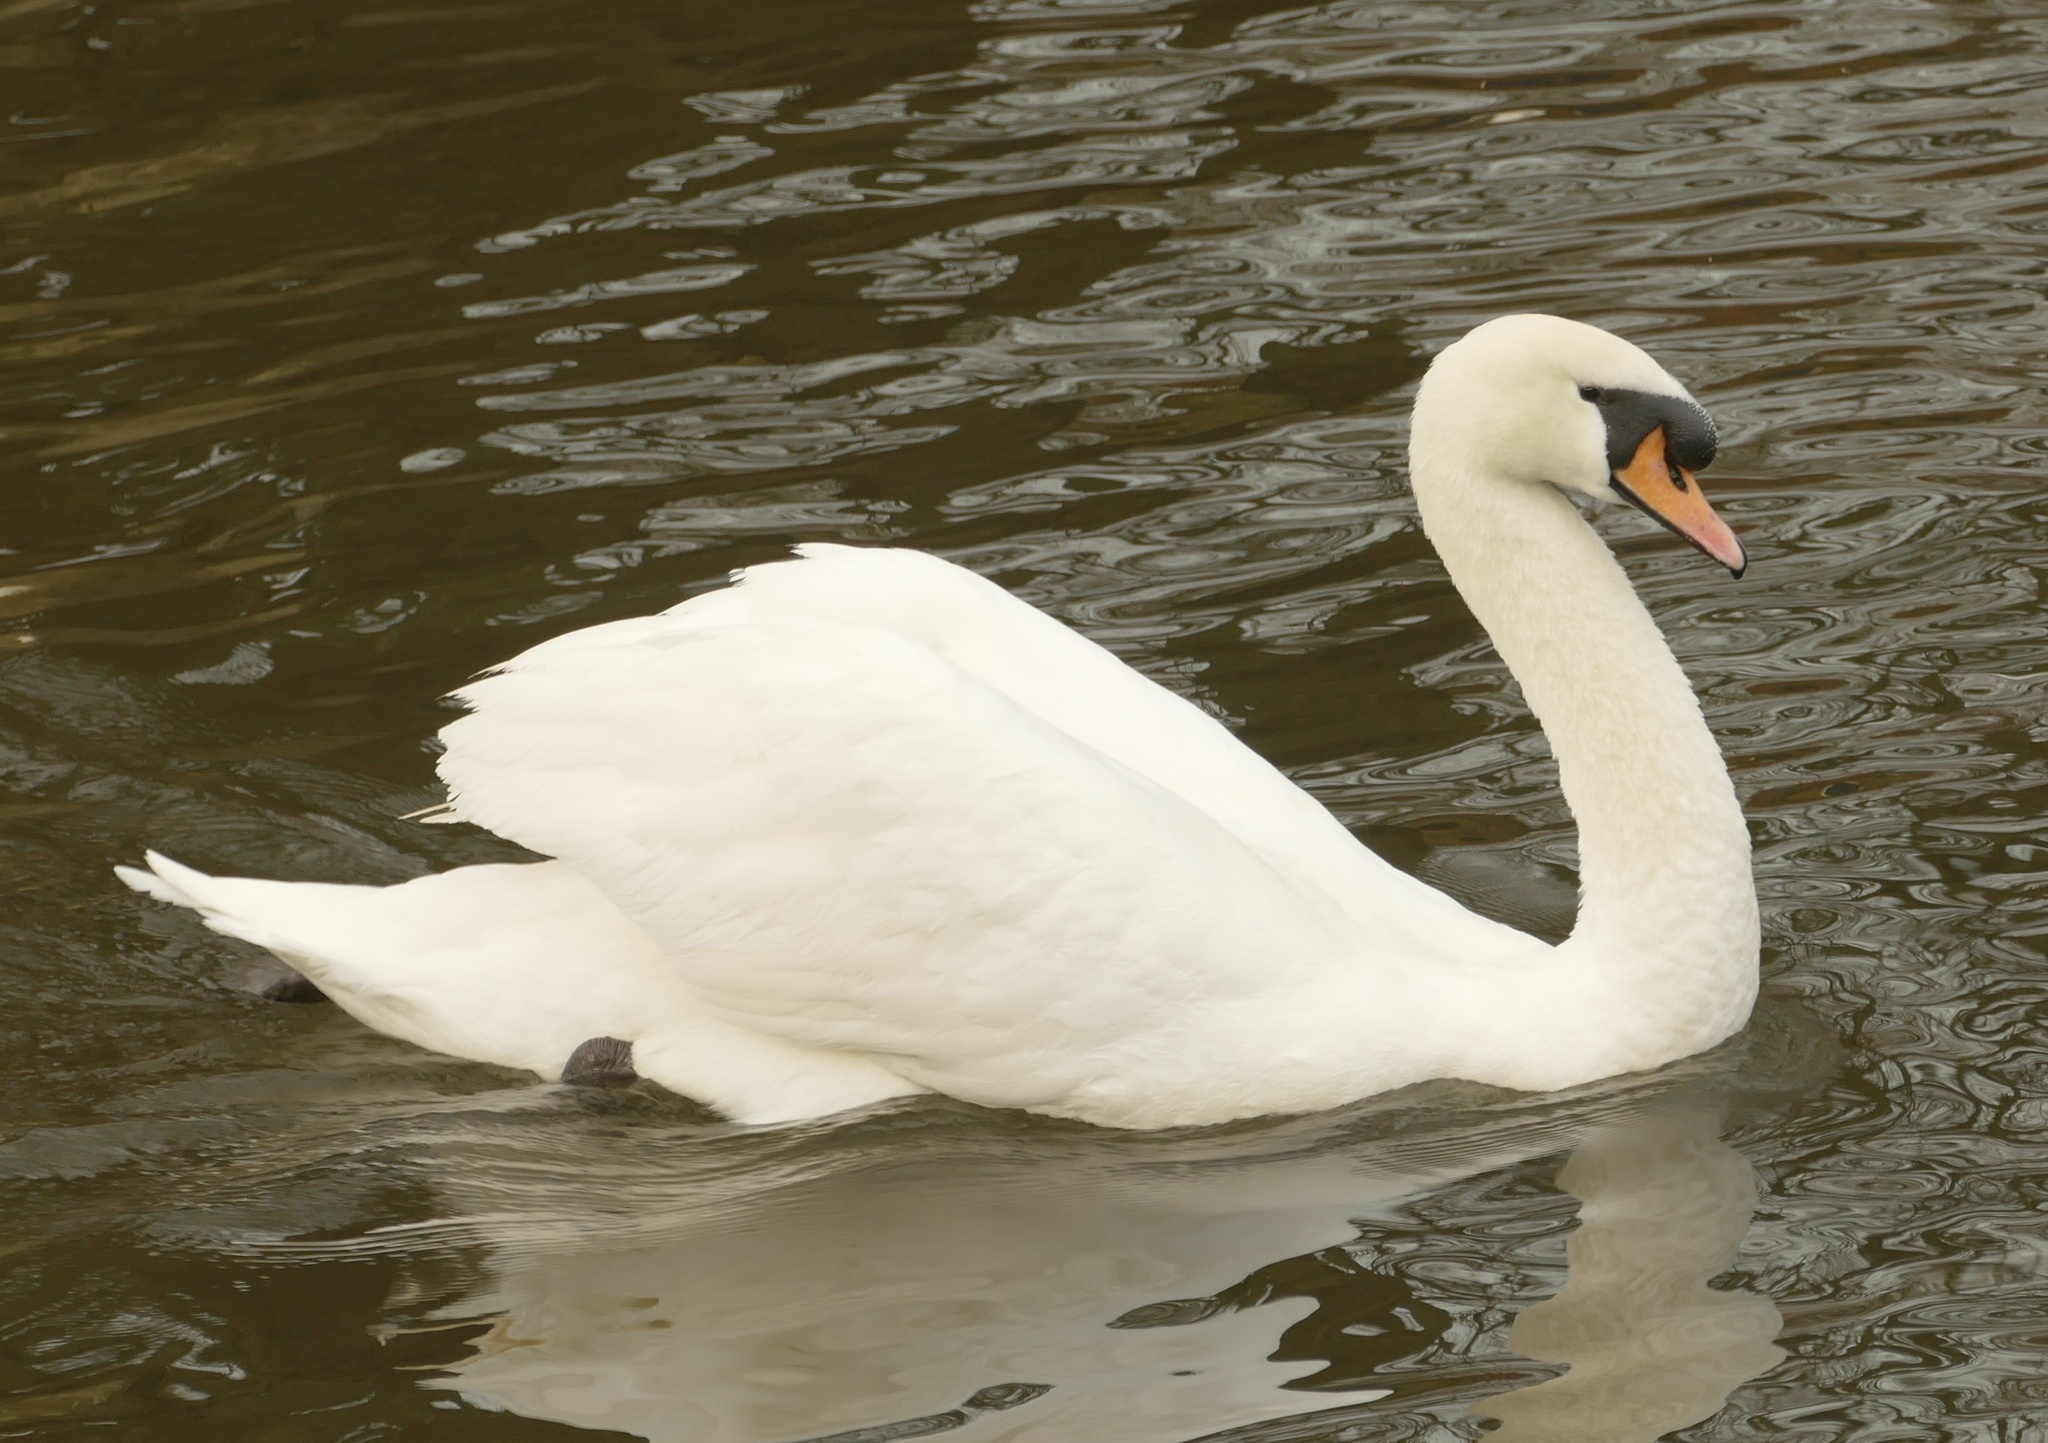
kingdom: Animalia
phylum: Chordata
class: Aves
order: Anseriformes
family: Anatidae
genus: Cygnus
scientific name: Cygnus olor
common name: Mute swan
